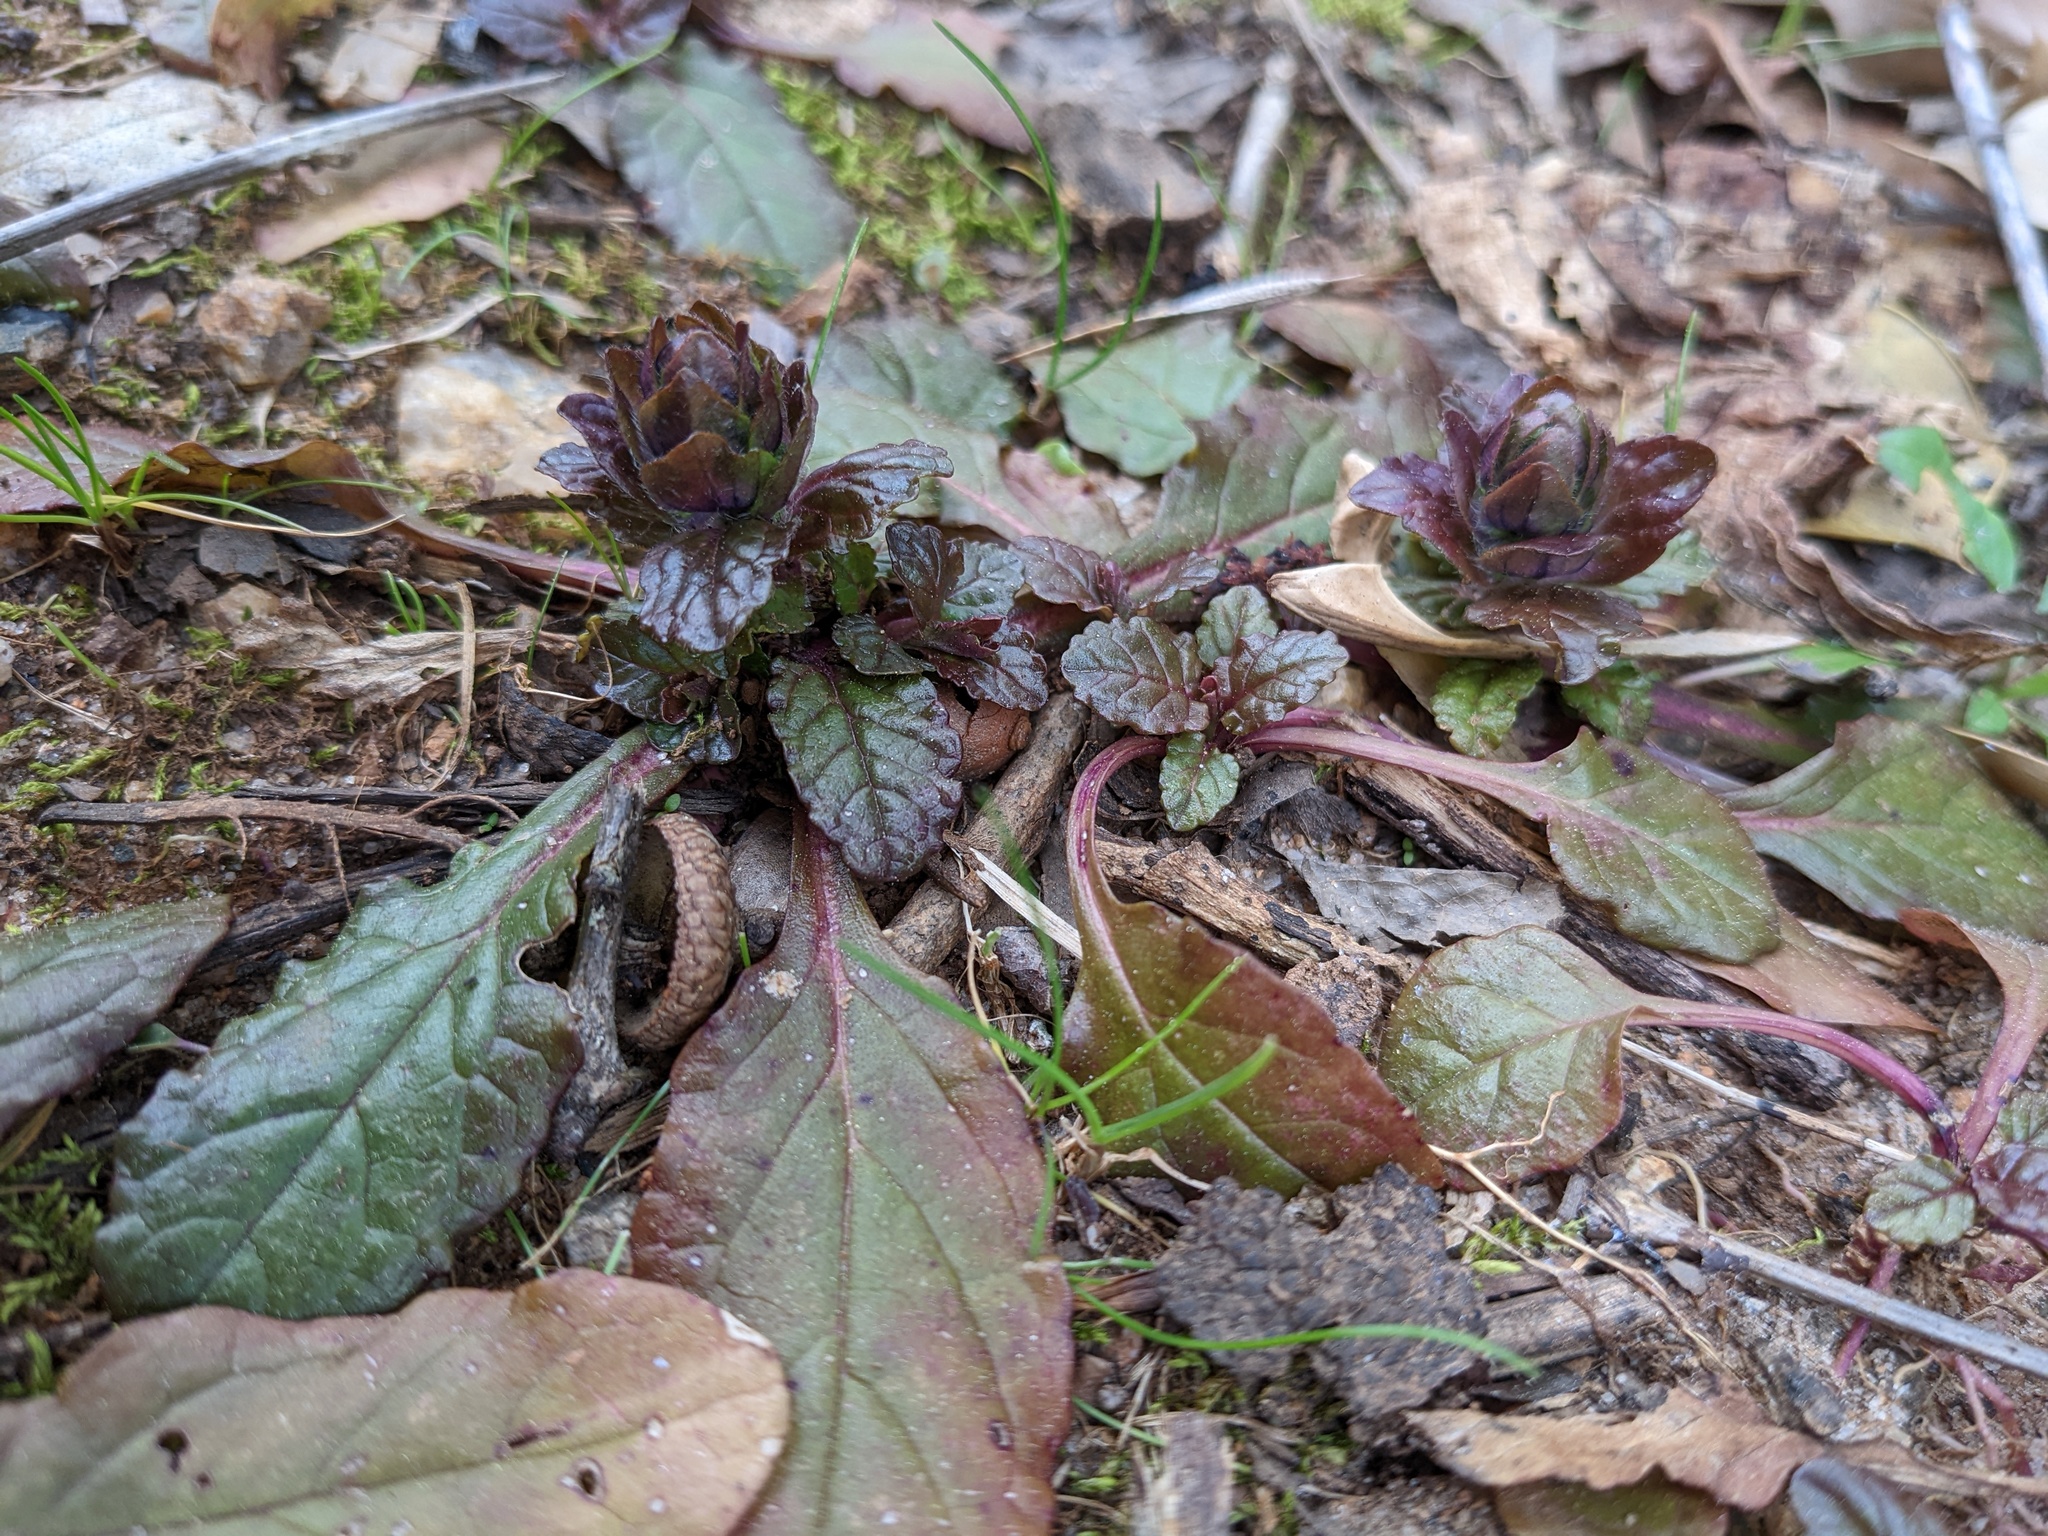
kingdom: Plantae
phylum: Tracheophyta
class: Magnoliopsida
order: Lamiales
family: Lamiaceae
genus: Ajuga
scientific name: Ajuga reptans
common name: Bugle
